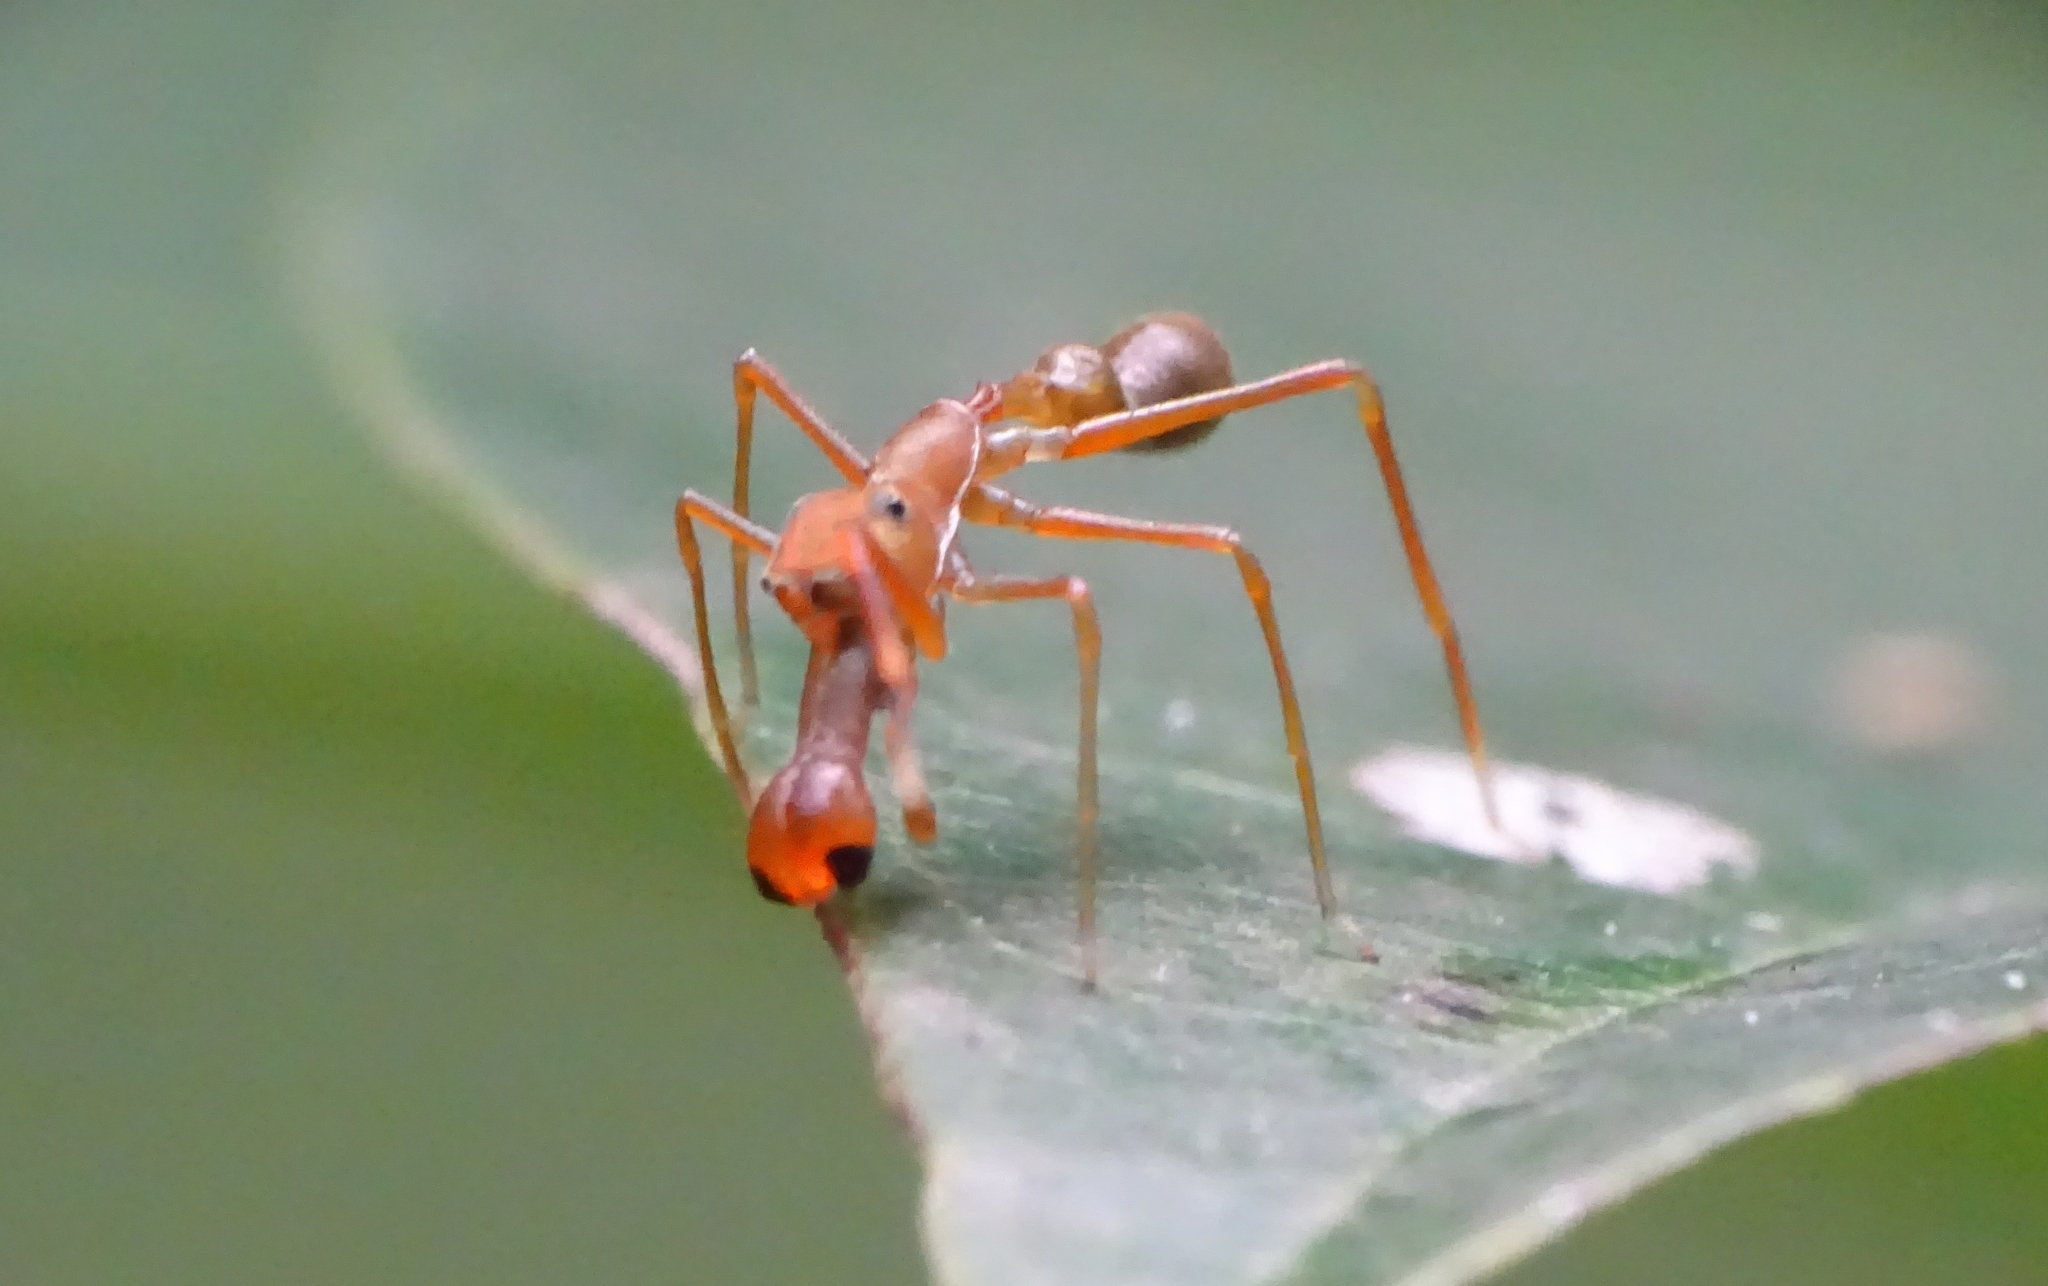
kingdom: Animalia
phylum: Arthropoda
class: Arachnida
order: Araneae
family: Salticidae
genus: Myrmaplata
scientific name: Myrmaplata plataleoides
